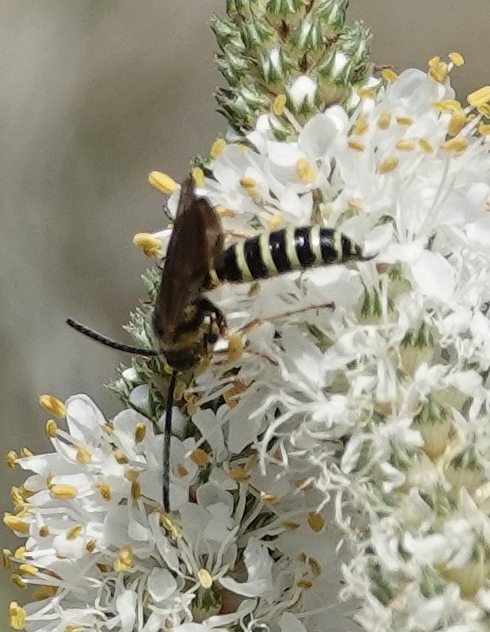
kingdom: Animalia
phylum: Arthropoda
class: Insecta
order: Hymenoptera
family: Tiphiidae
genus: Myzinum
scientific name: Myzinum quinquecinctum
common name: Five-banded thynnid wasp
